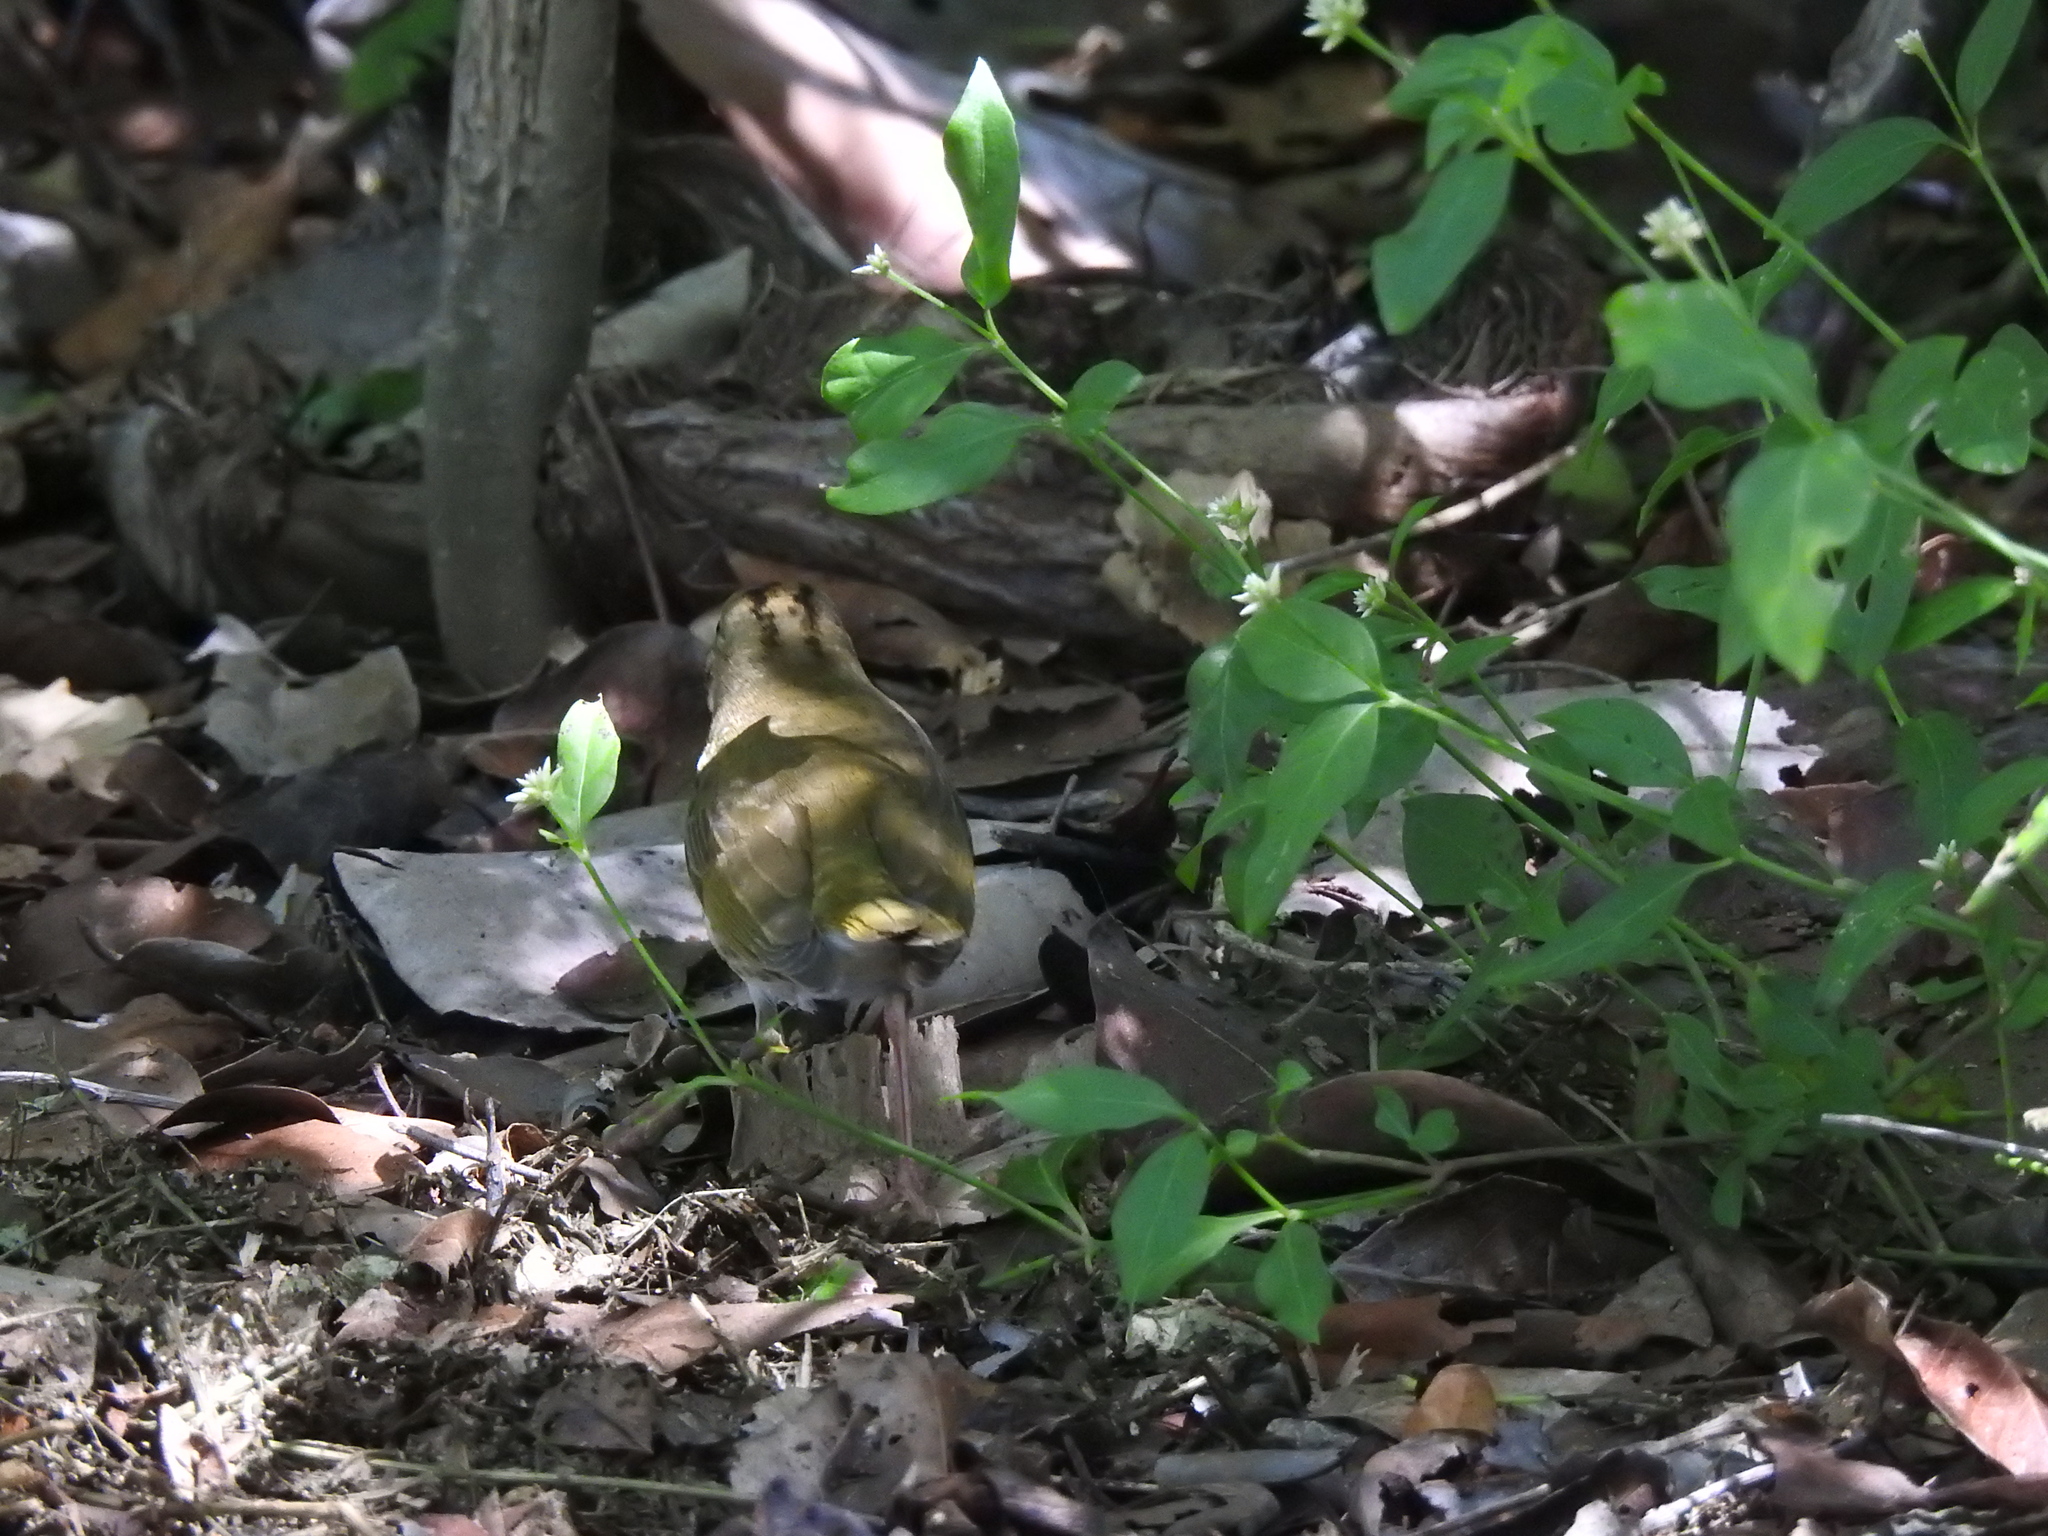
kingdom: Animalia
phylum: Chordata
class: Aves
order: Passeriformes
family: Parulidae
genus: Seiurus
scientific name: Seiurus aurocapilla
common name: Ovenbird
